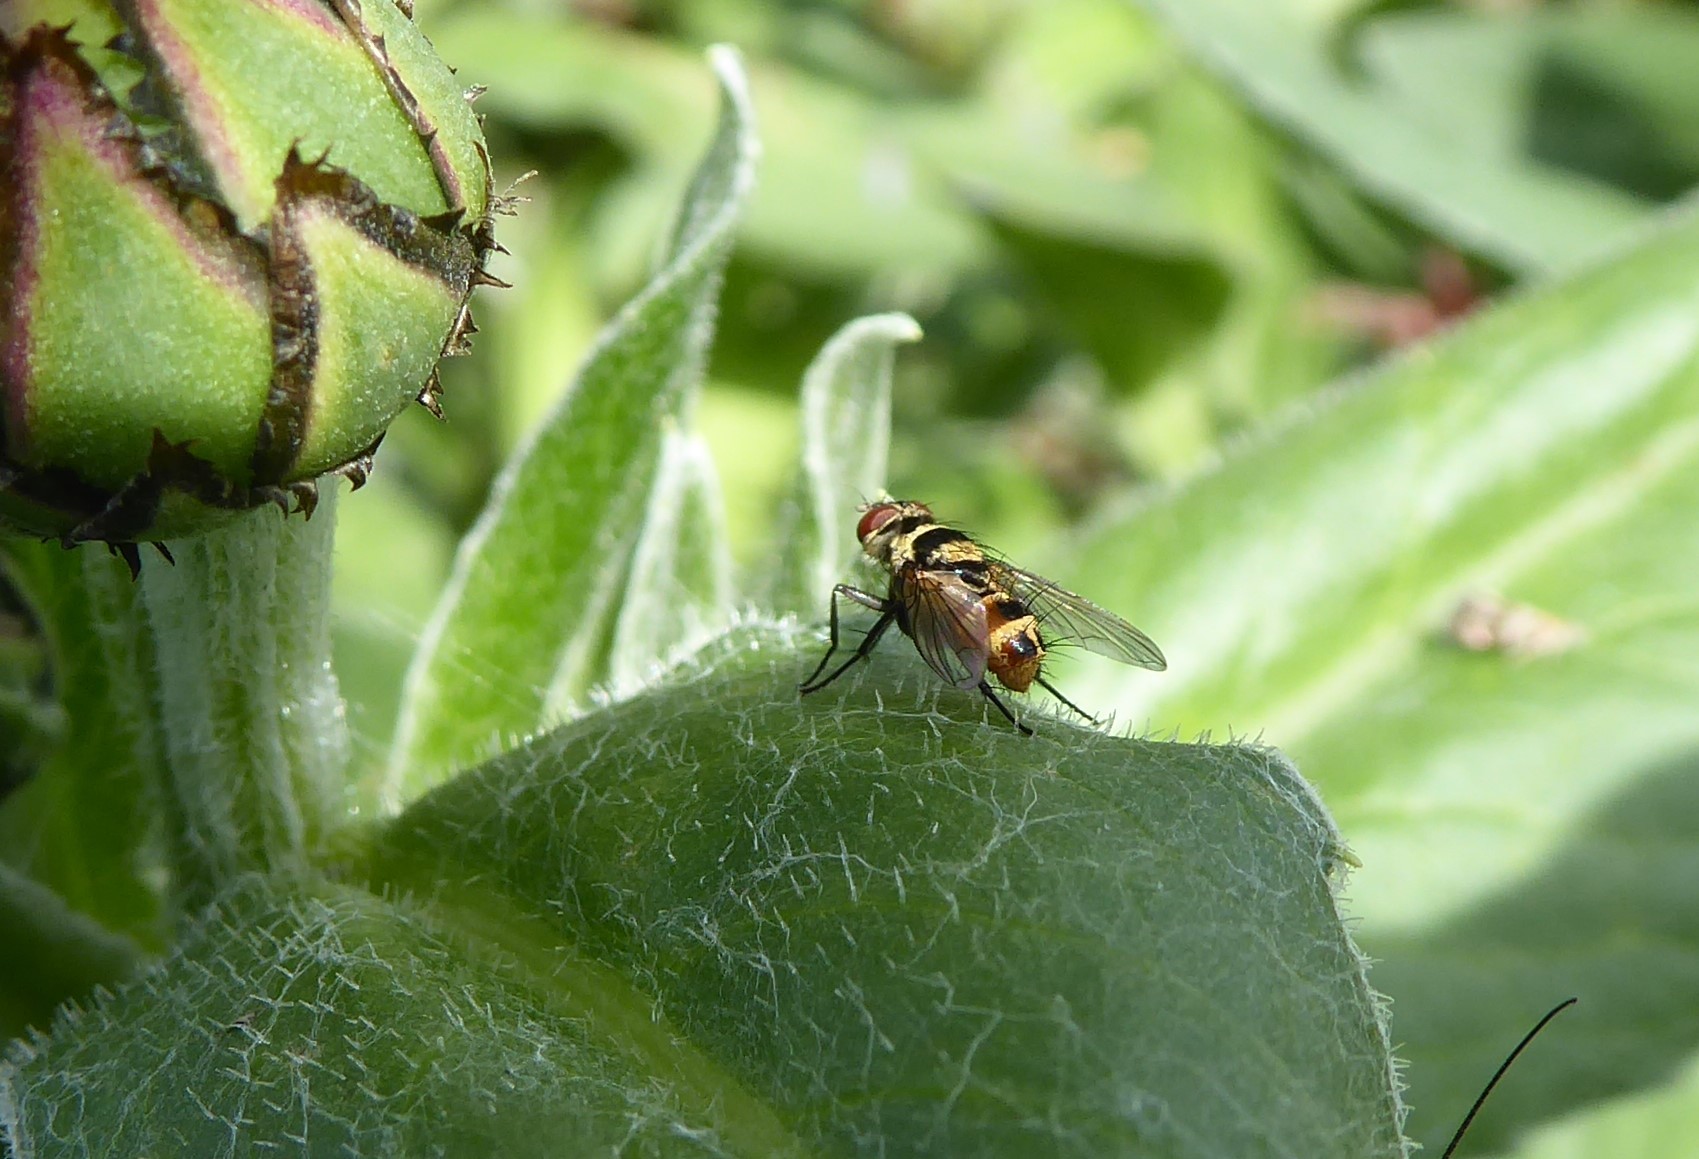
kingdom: Animalia
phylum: Arthropoda
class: Insecta
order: Diptera
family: Tachinidae
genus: Trigonospila
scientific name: Trigonospila brevifacies
